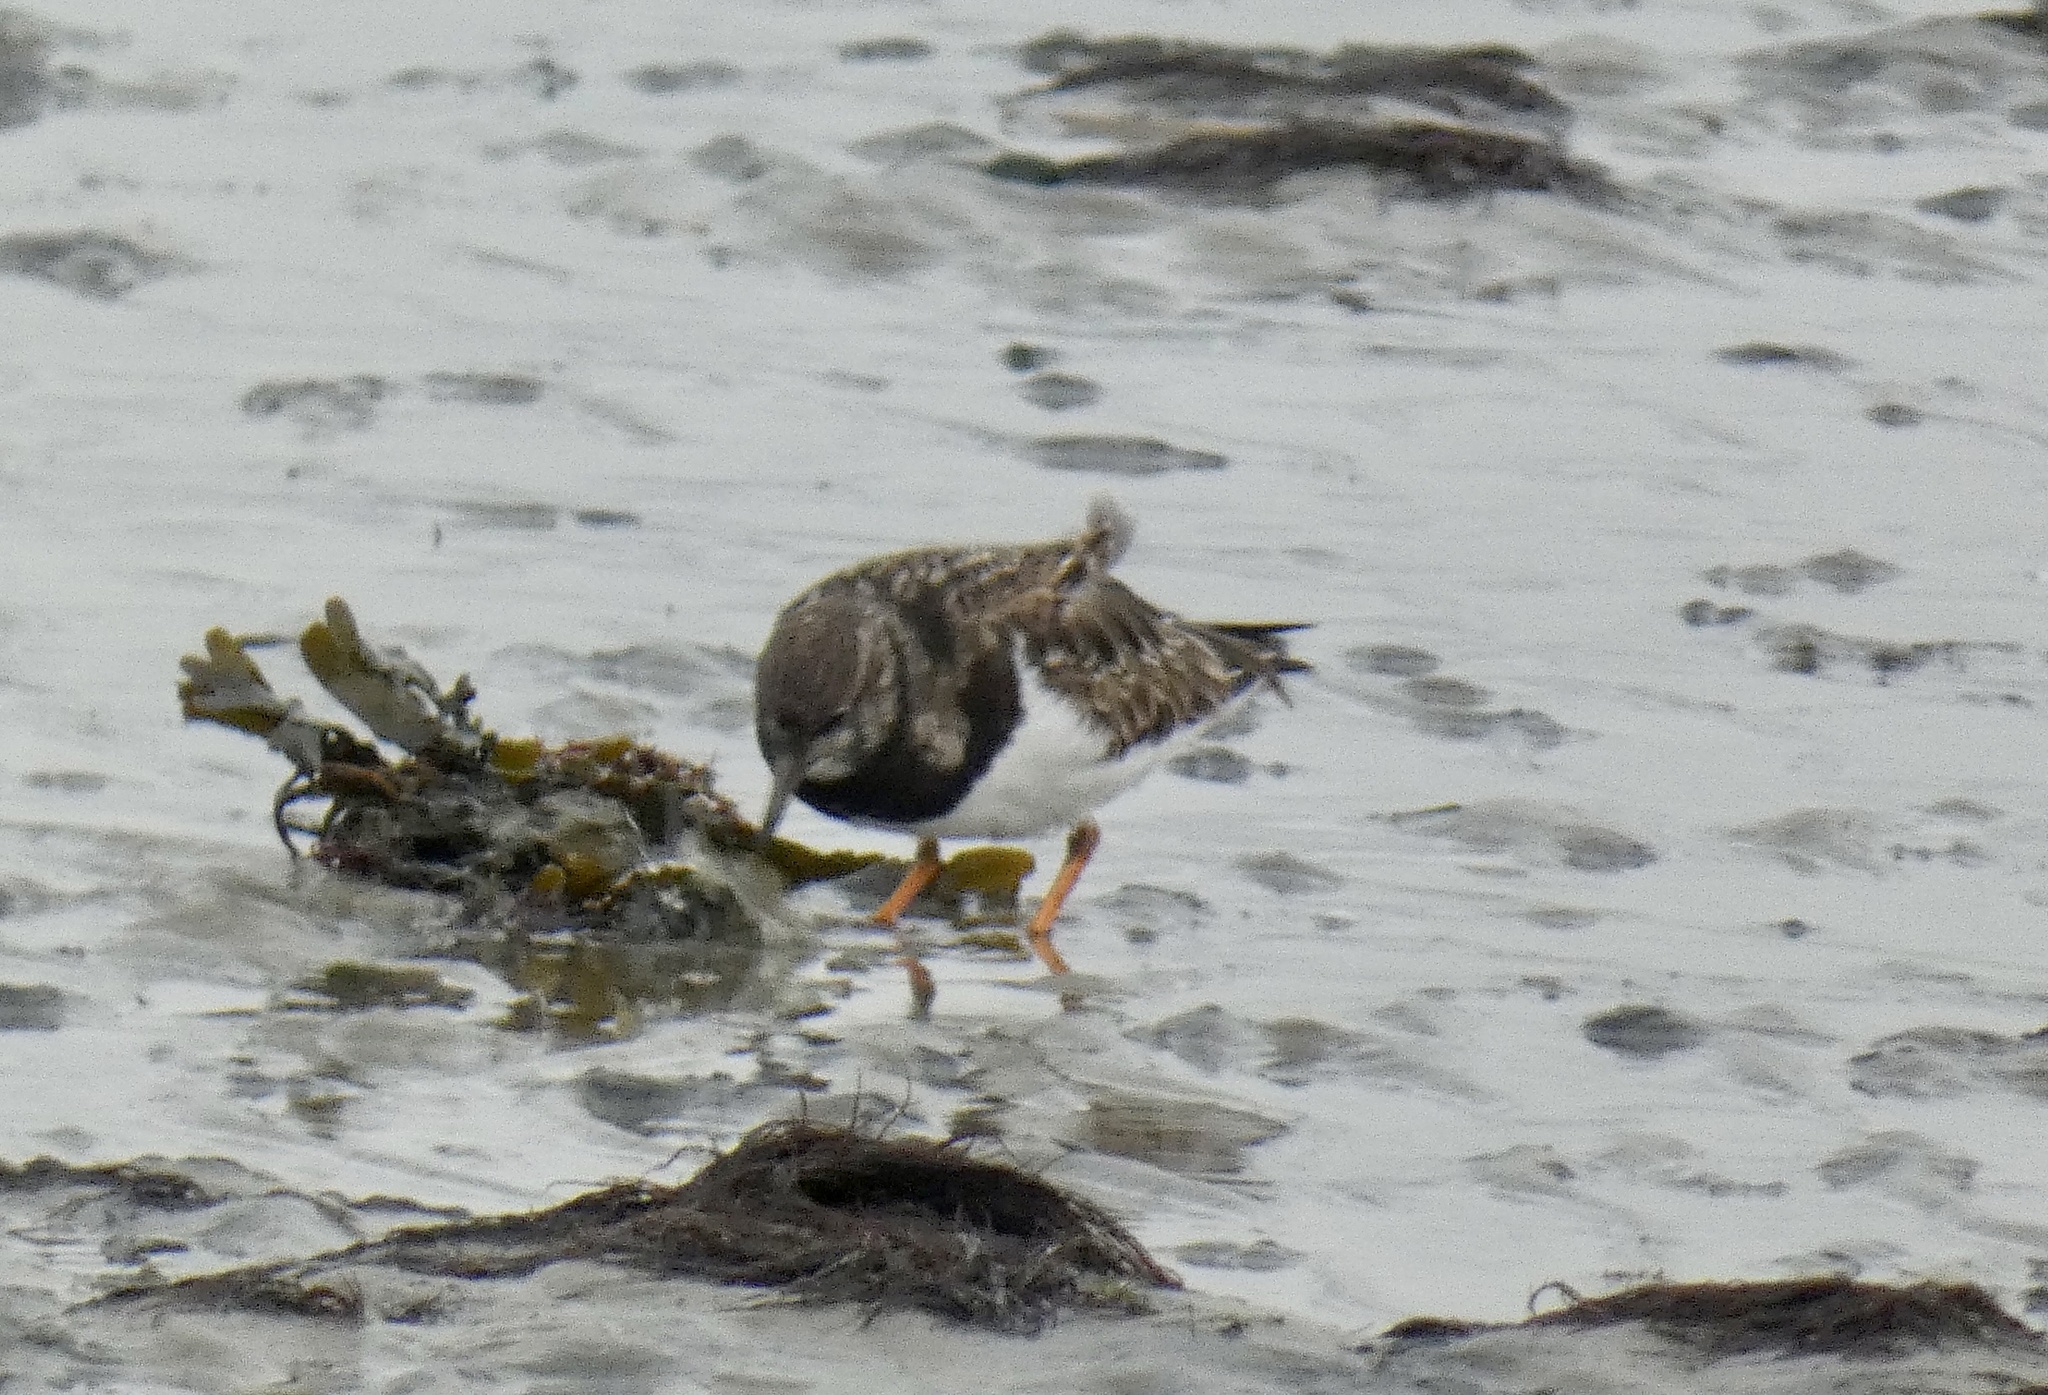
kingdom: Animalia
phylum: Chordata
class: Aves
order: Charadriiformes
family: Scolopacidae
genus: Arenaria
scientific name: Arenaria interpres
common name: Ruddy turnstone
